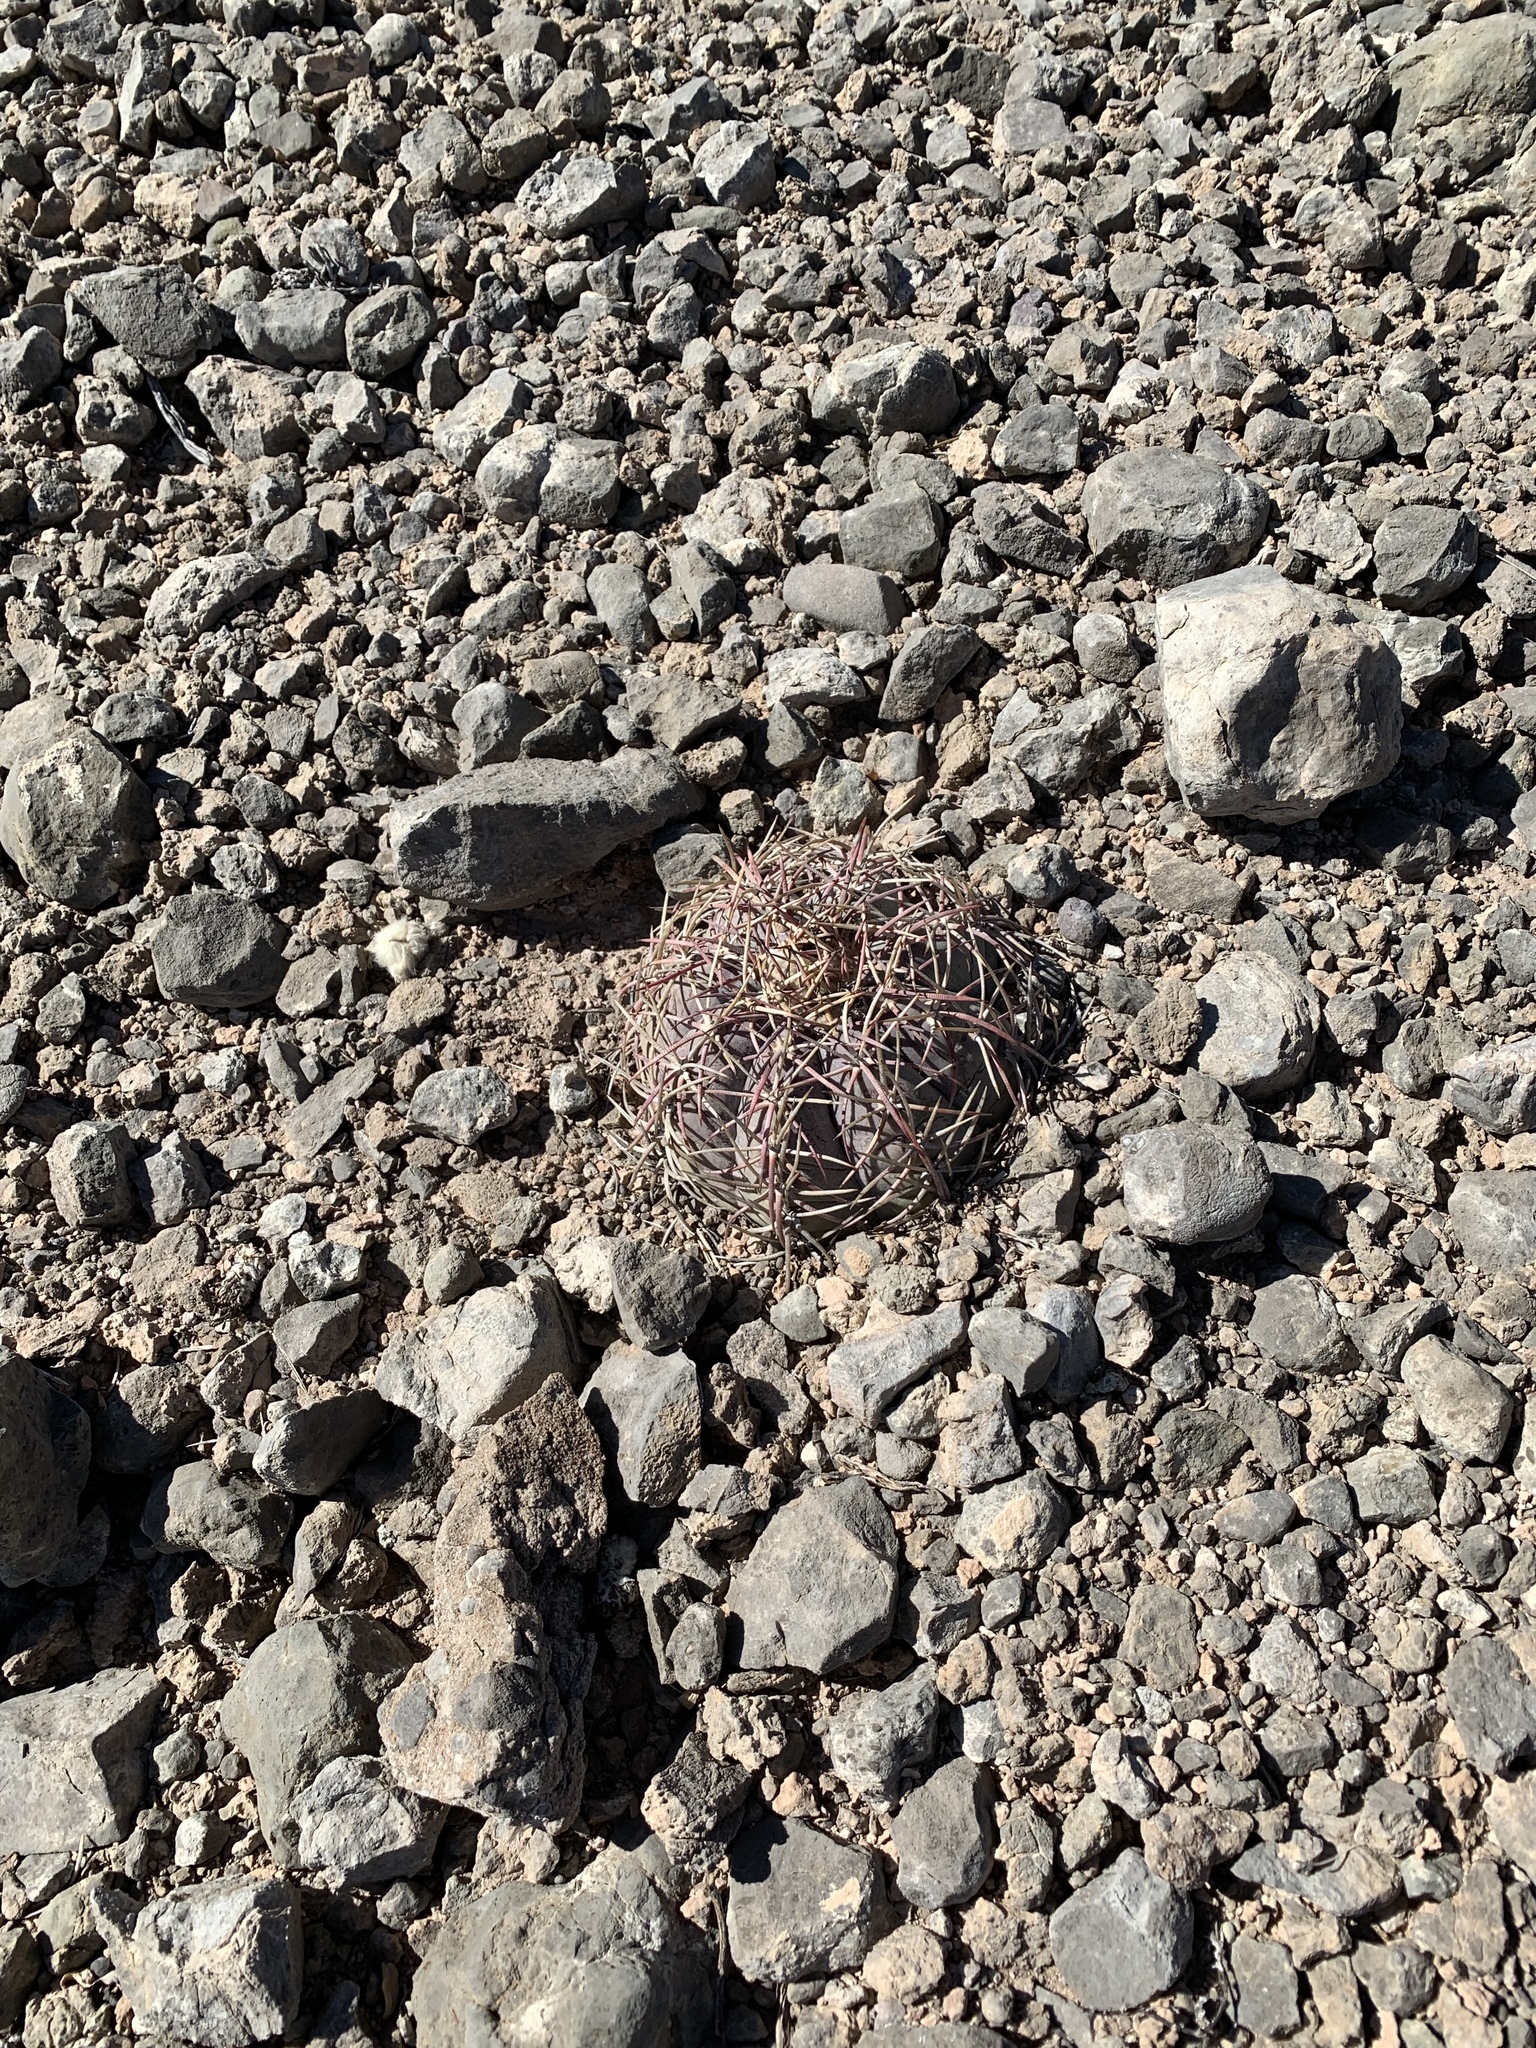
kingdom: Plantae
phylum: Tracheophyta
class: Magnoliopsida
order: Caryophyllales
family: Cactaceae
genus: Echinocactus
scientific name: Echinocactus horizonthalonius
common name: Devilshead
